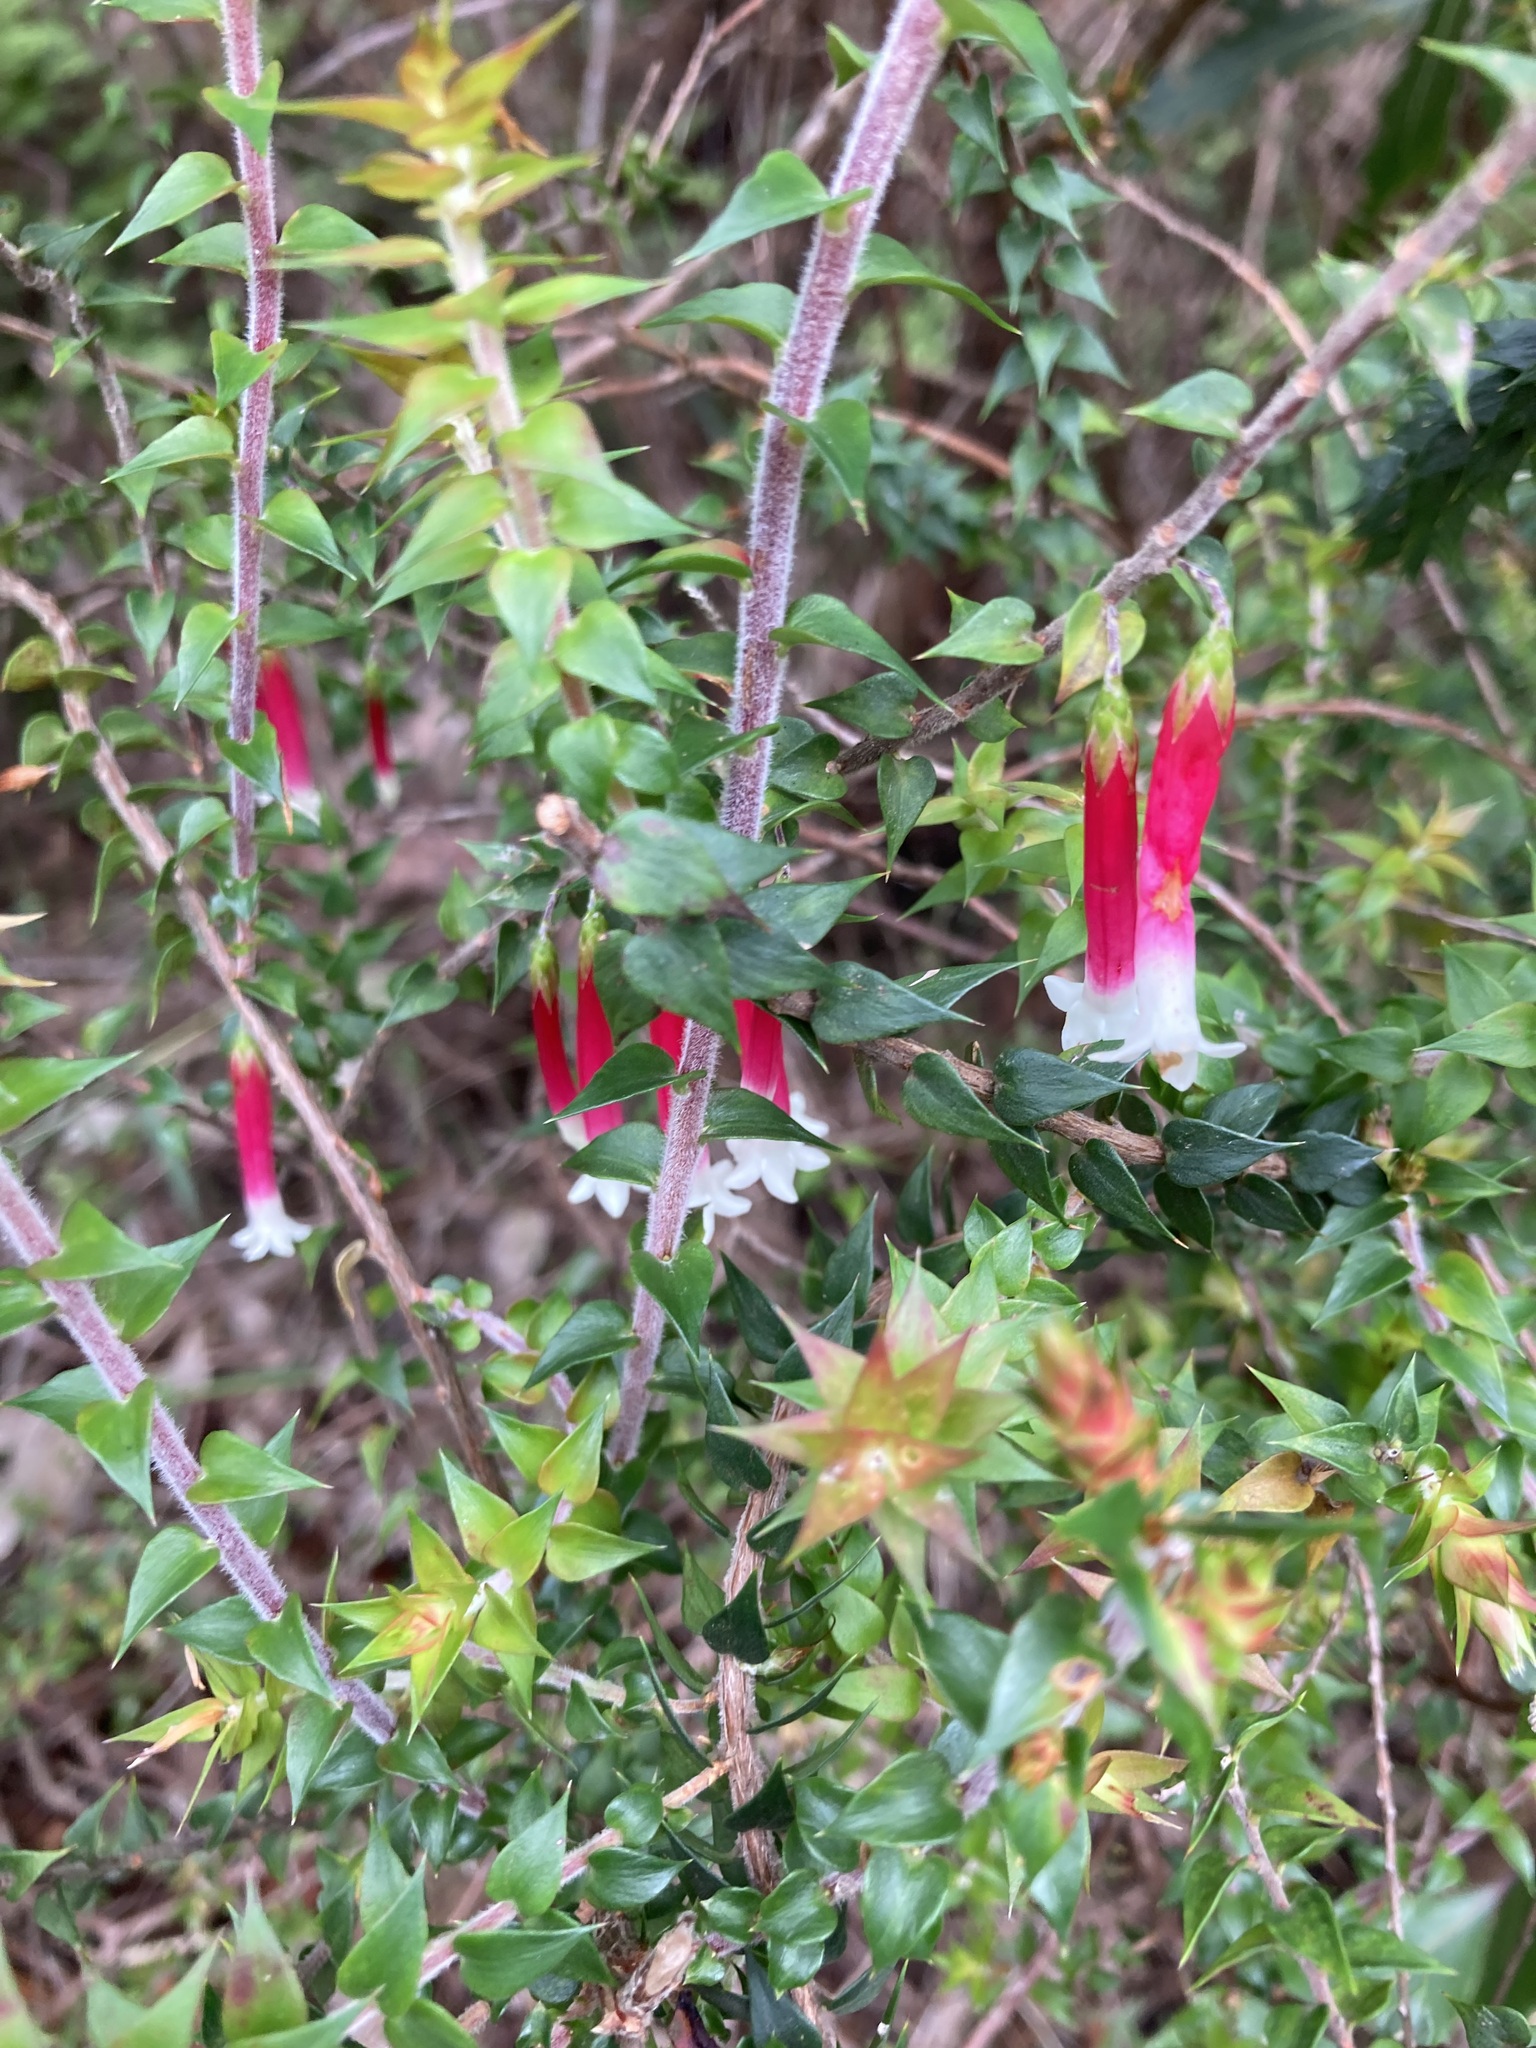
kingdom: Plantae
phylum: Tracheophyta
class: Magnoliopsida
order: Ericales
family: Ericaceae
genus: Epacris
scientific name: Epacris longiflora
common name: Fuchsia-heath
